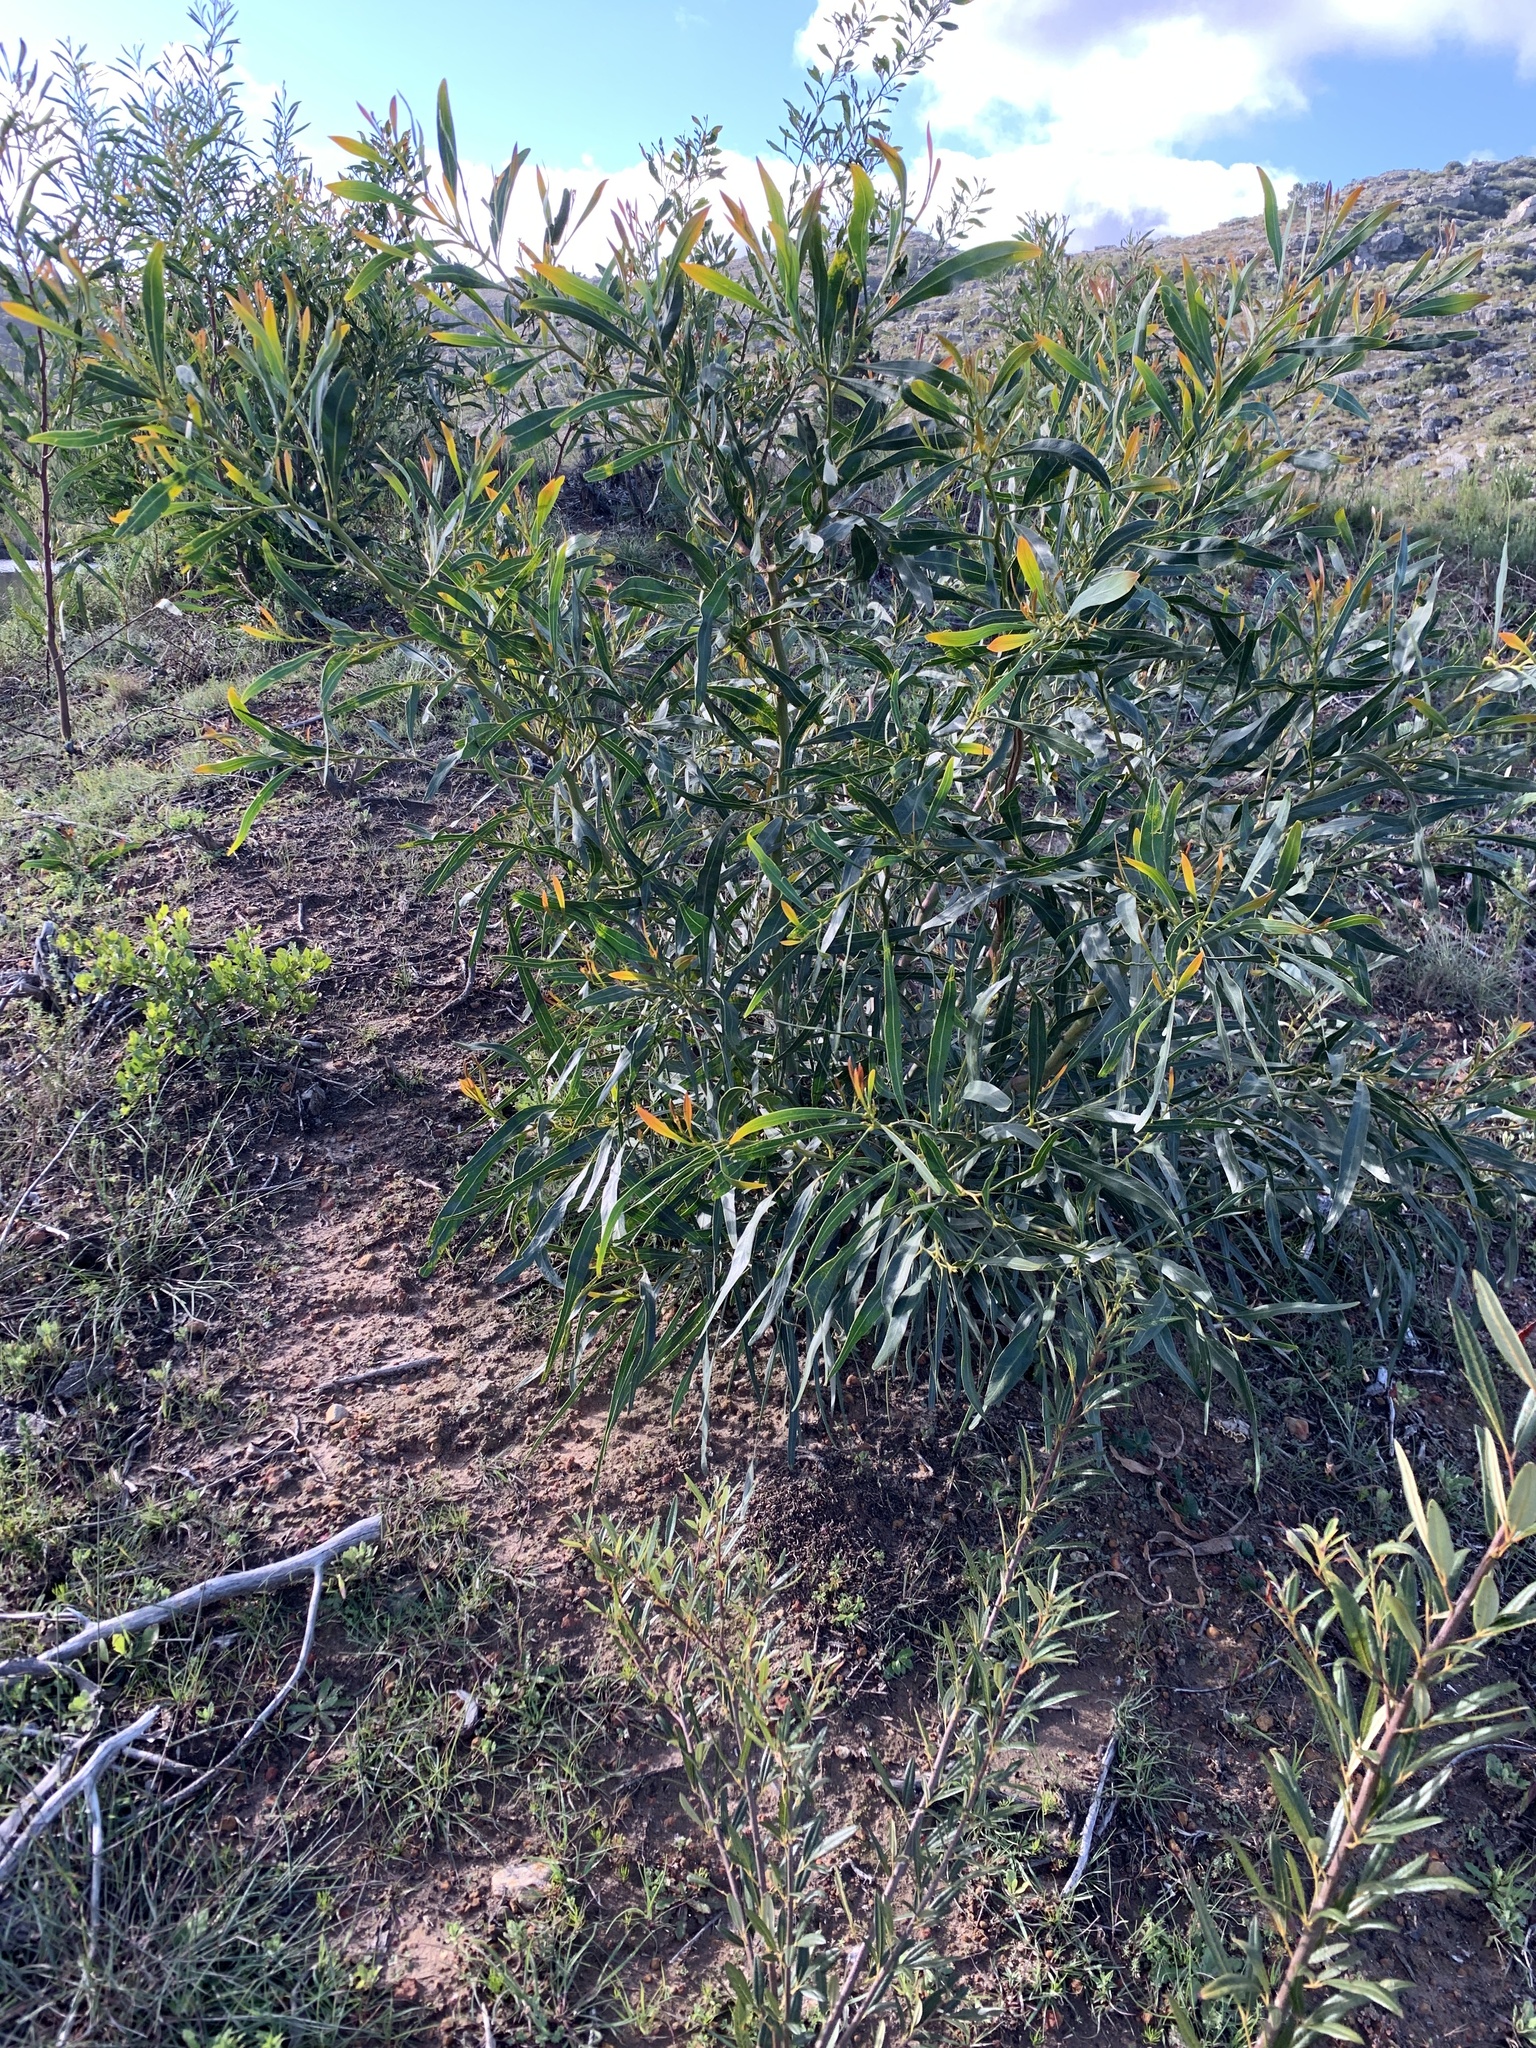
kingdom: Plantae
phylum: Tracheophyta
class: Magnoliopsida
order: Fabales
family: Fabaceae
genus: Acacia
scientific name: Acacia saligna
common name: Orange wattle
